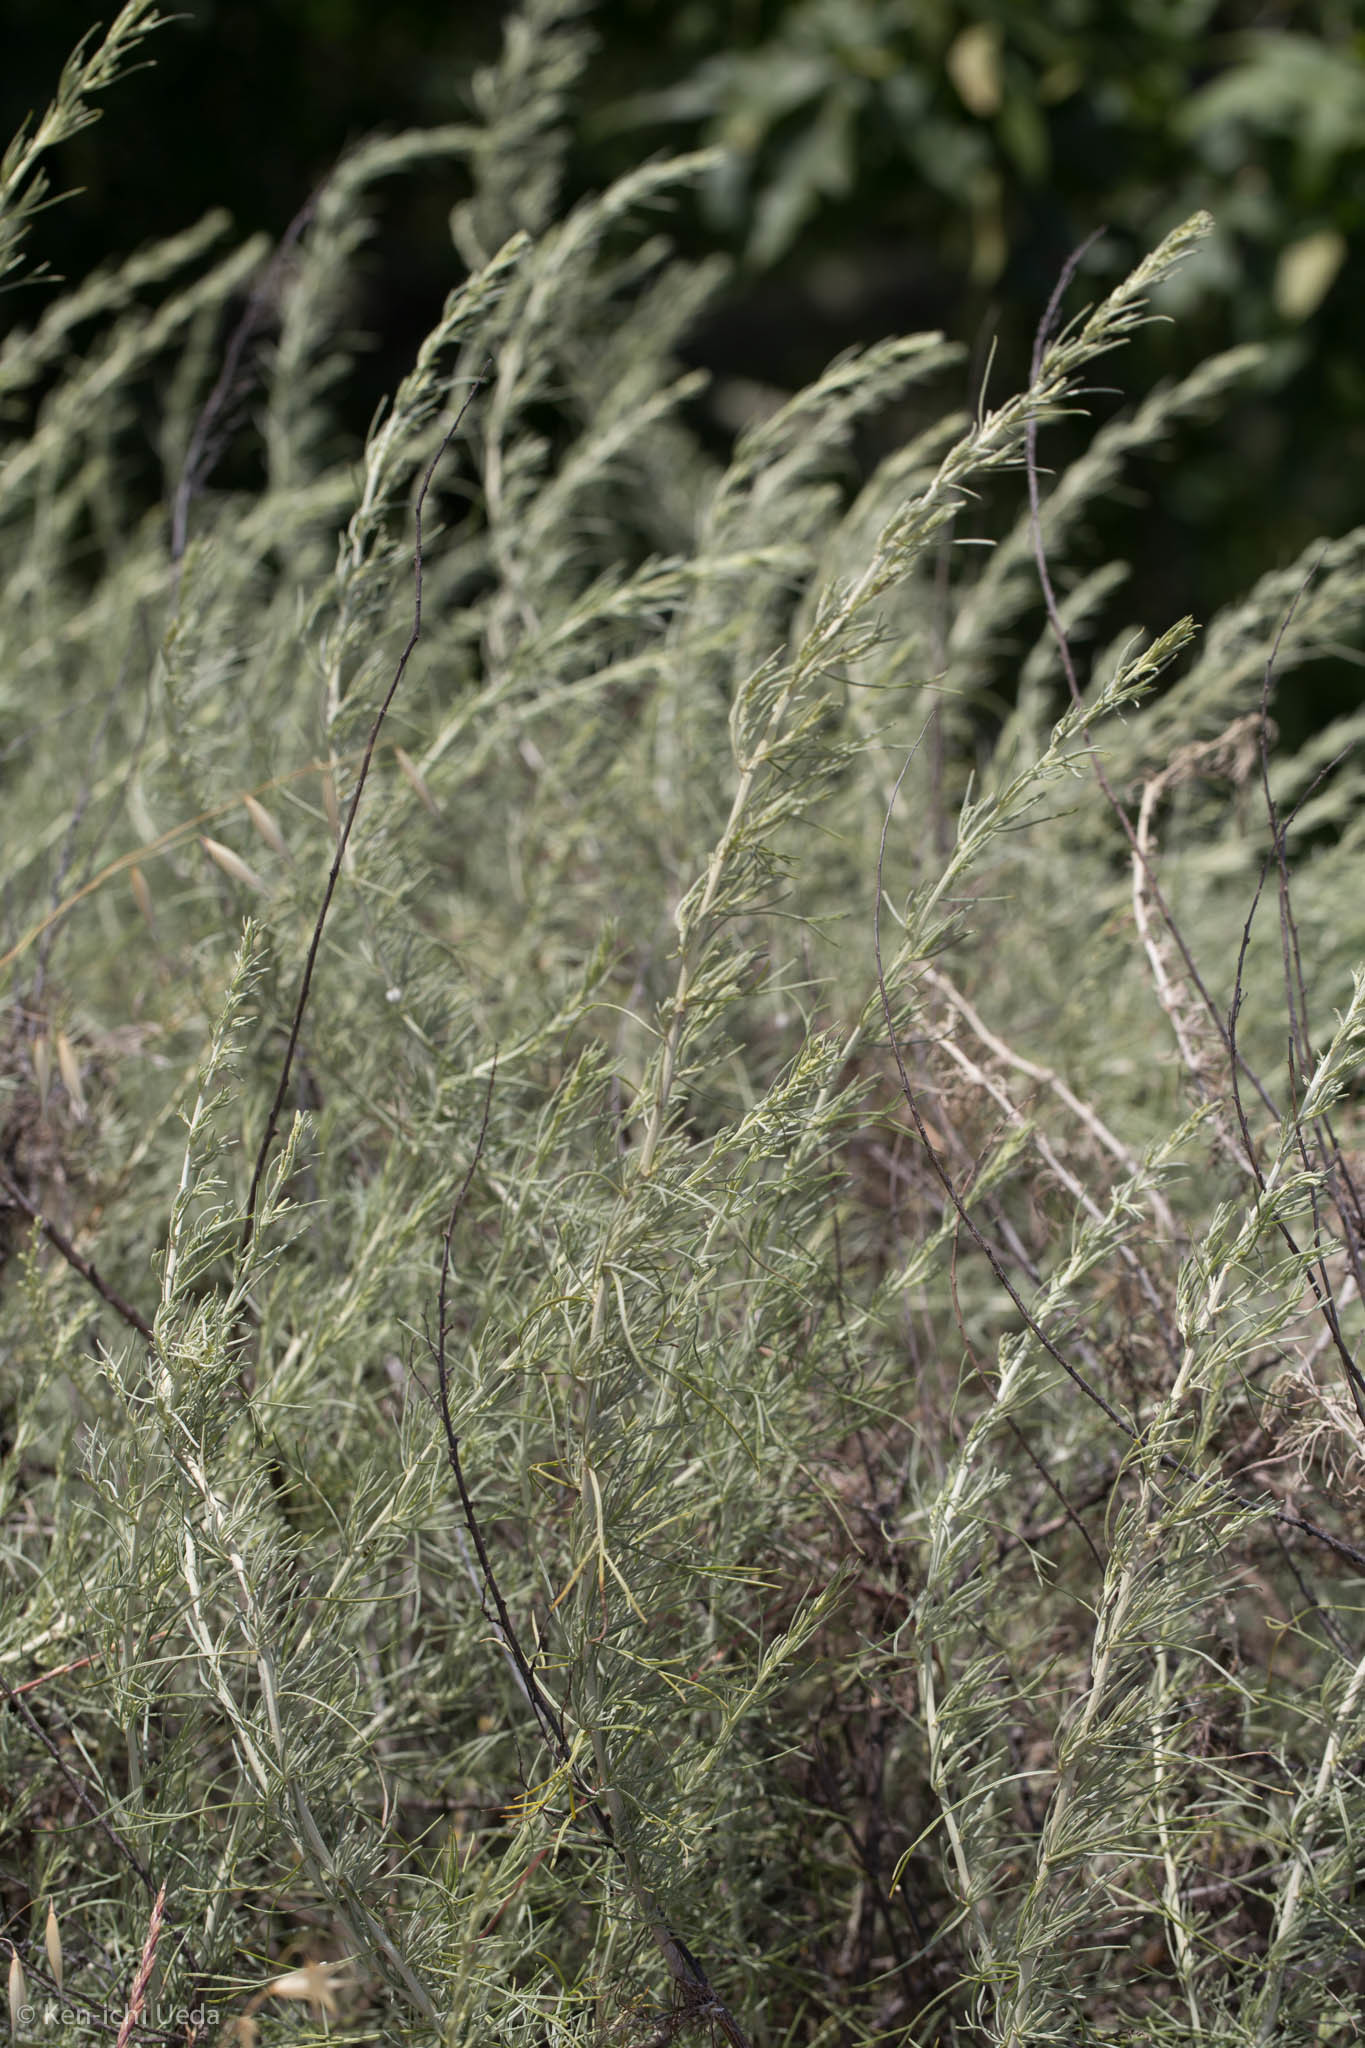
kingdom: Plantae
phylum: Tracheophyta
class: Magnoliopsida
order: Asterales
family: Asteraceae
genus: Artemisia
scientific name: Artemisia californica
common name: California sagebrush
